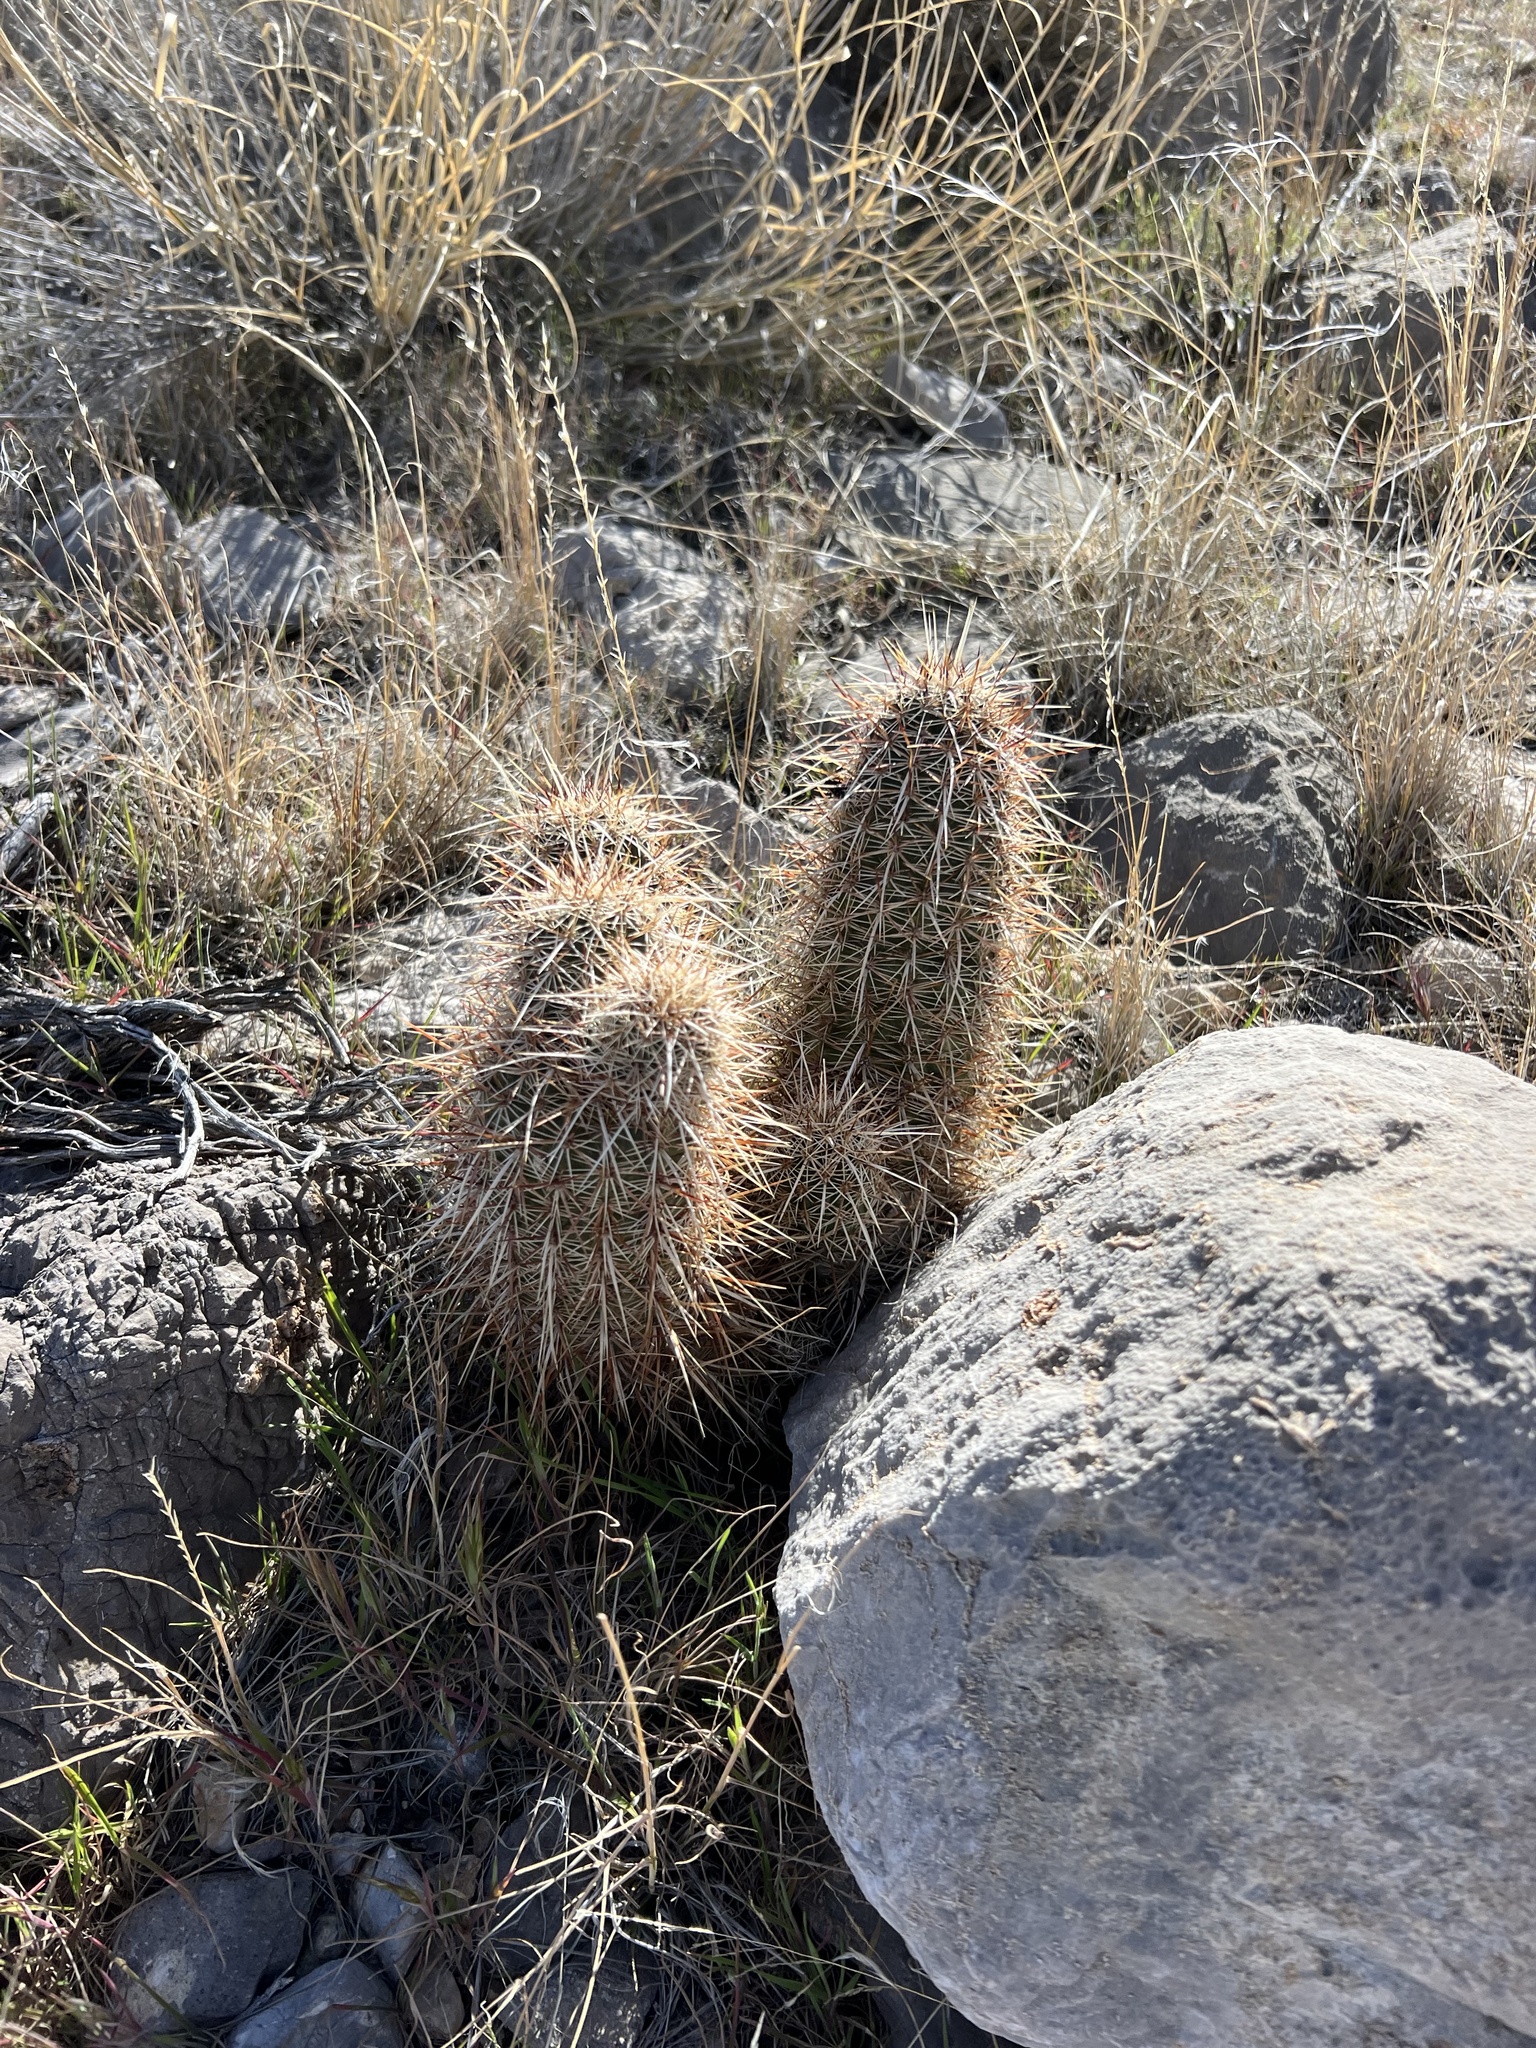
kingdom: Plantae
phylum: Tracheophyta
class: Magnoliopsida
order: Caryophyllales
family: Cactaceae
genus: Echinocereus
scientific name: Echinocereus engelmannii
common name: Engelmann's hedgehog cactus
